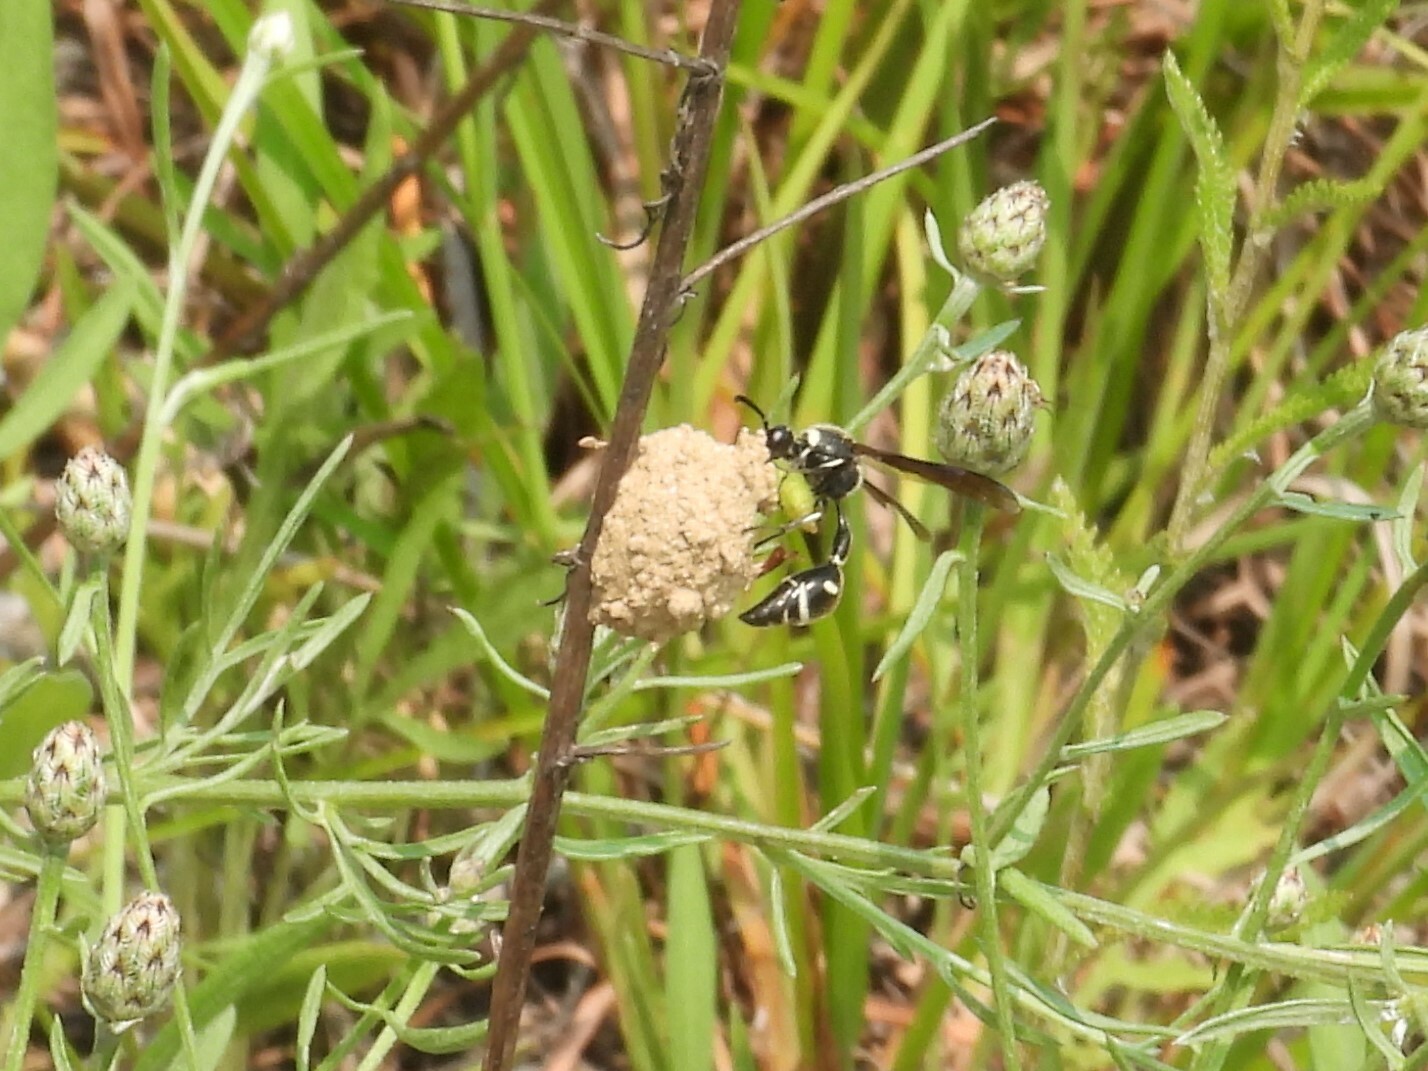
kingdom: Animalia
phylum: Arthropoda
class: Insecta
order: Hymenoptera
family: Vespidae
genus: Eumenes
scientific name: Eumenes fraternus
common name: Fraternal potter wasp
